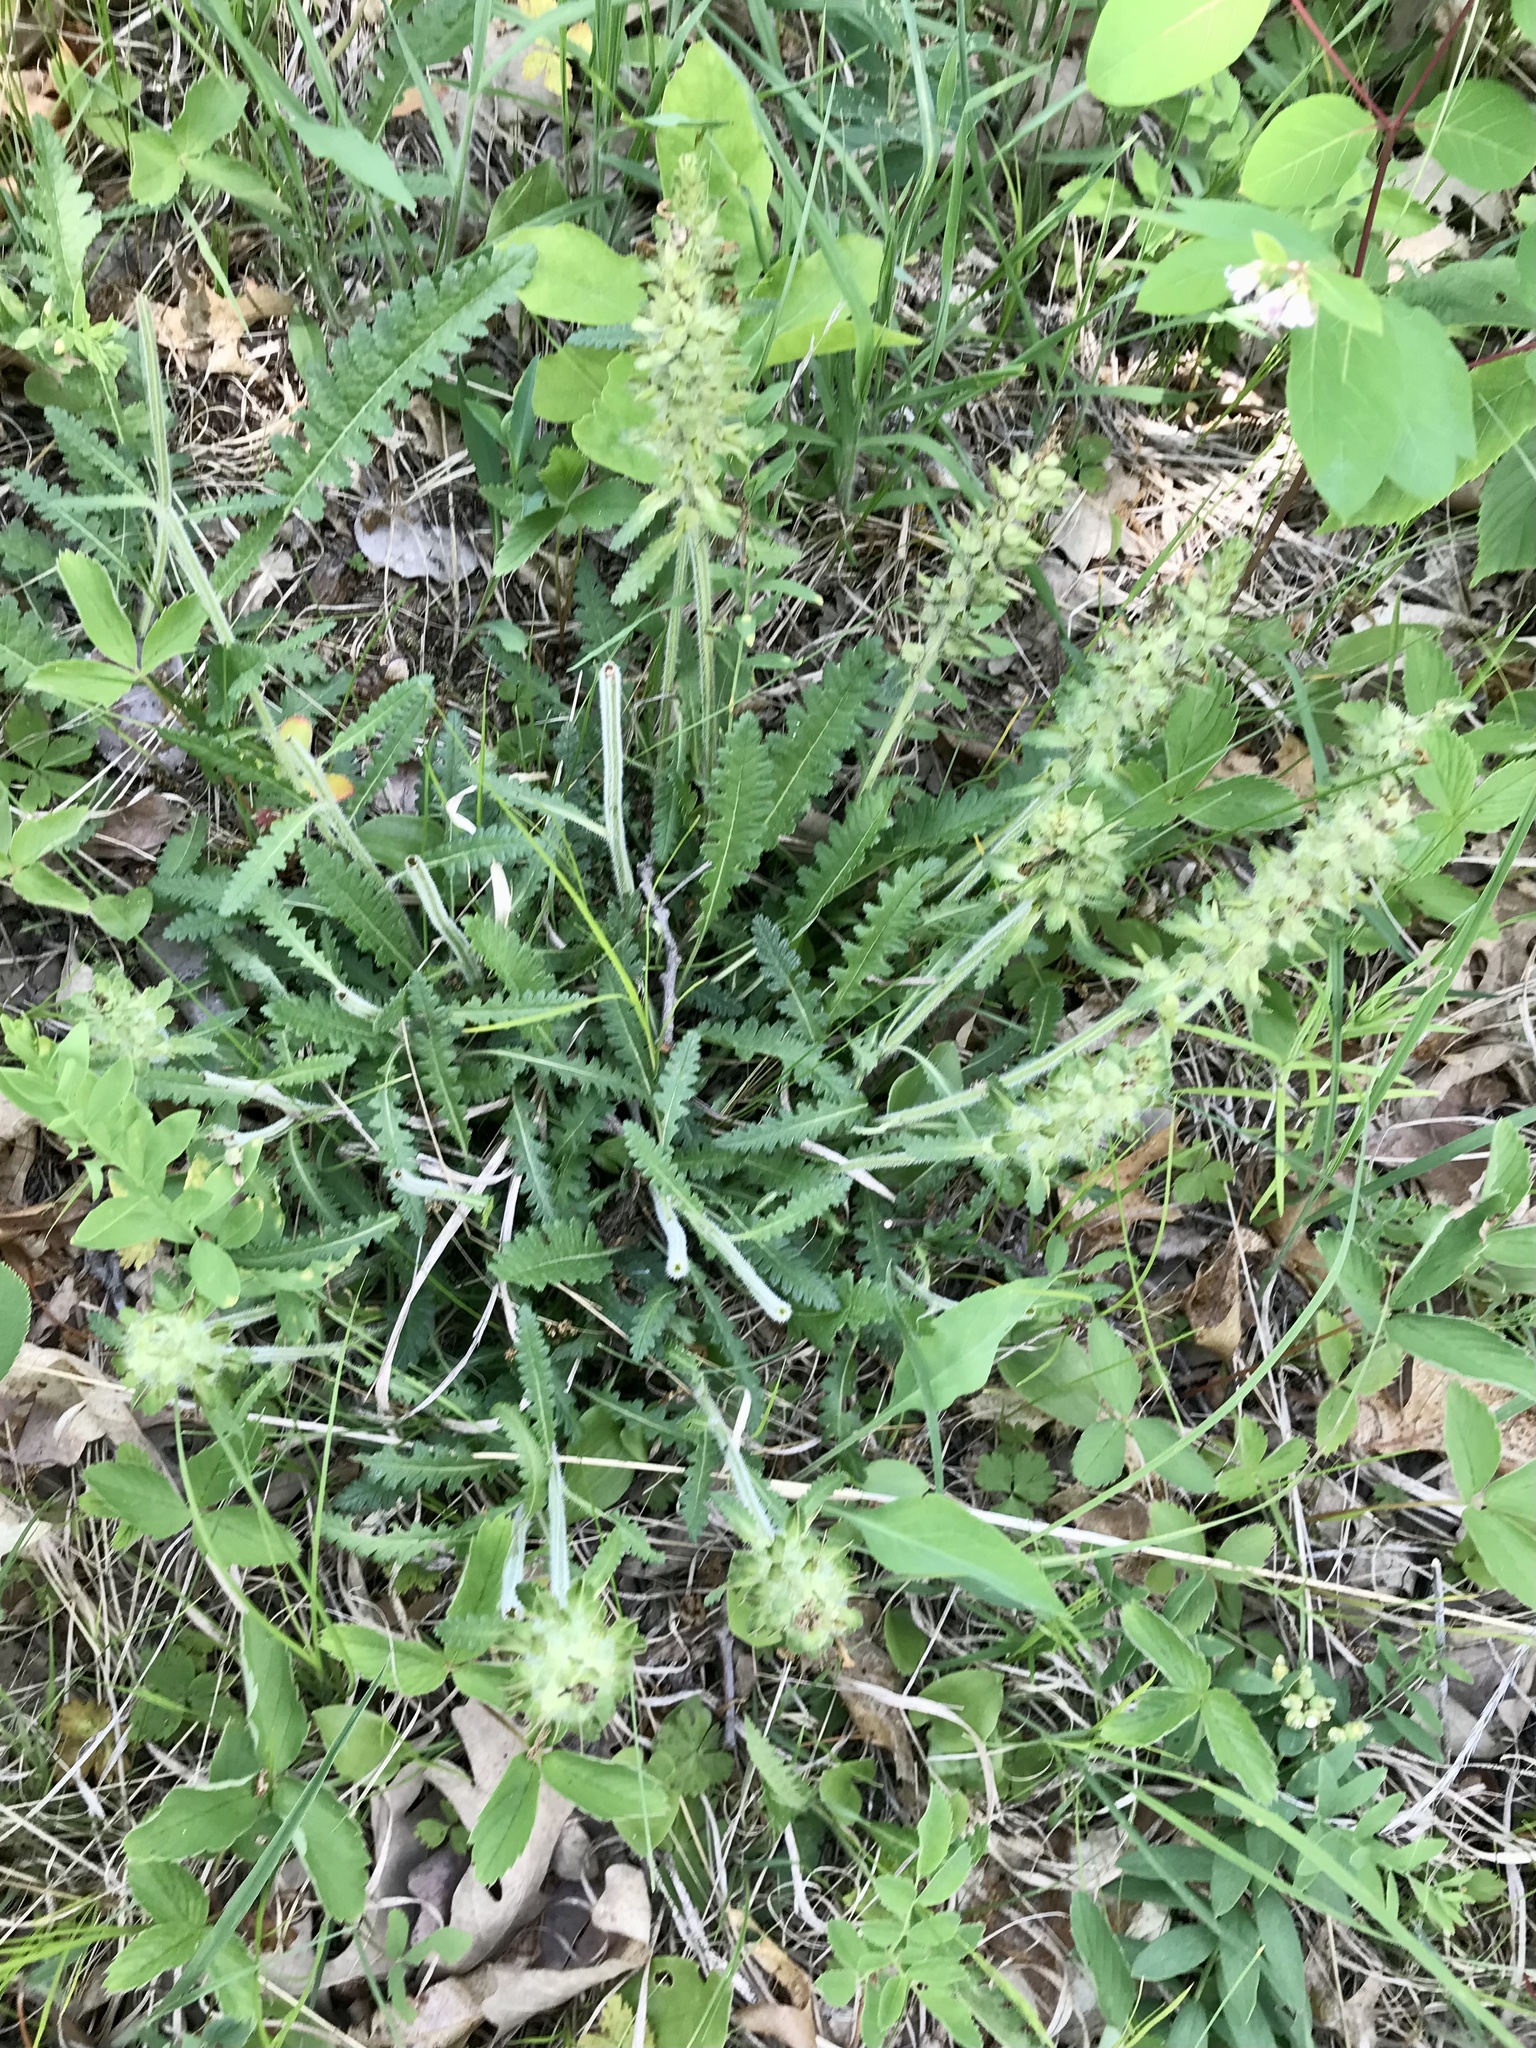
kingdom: Plantae
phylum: Tracheophyta
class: Magnoliopsida
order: Lamiales
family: Orobanchaceae
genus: Pedicularis
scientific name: Pedicularis canadensis
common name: Early lousewort
